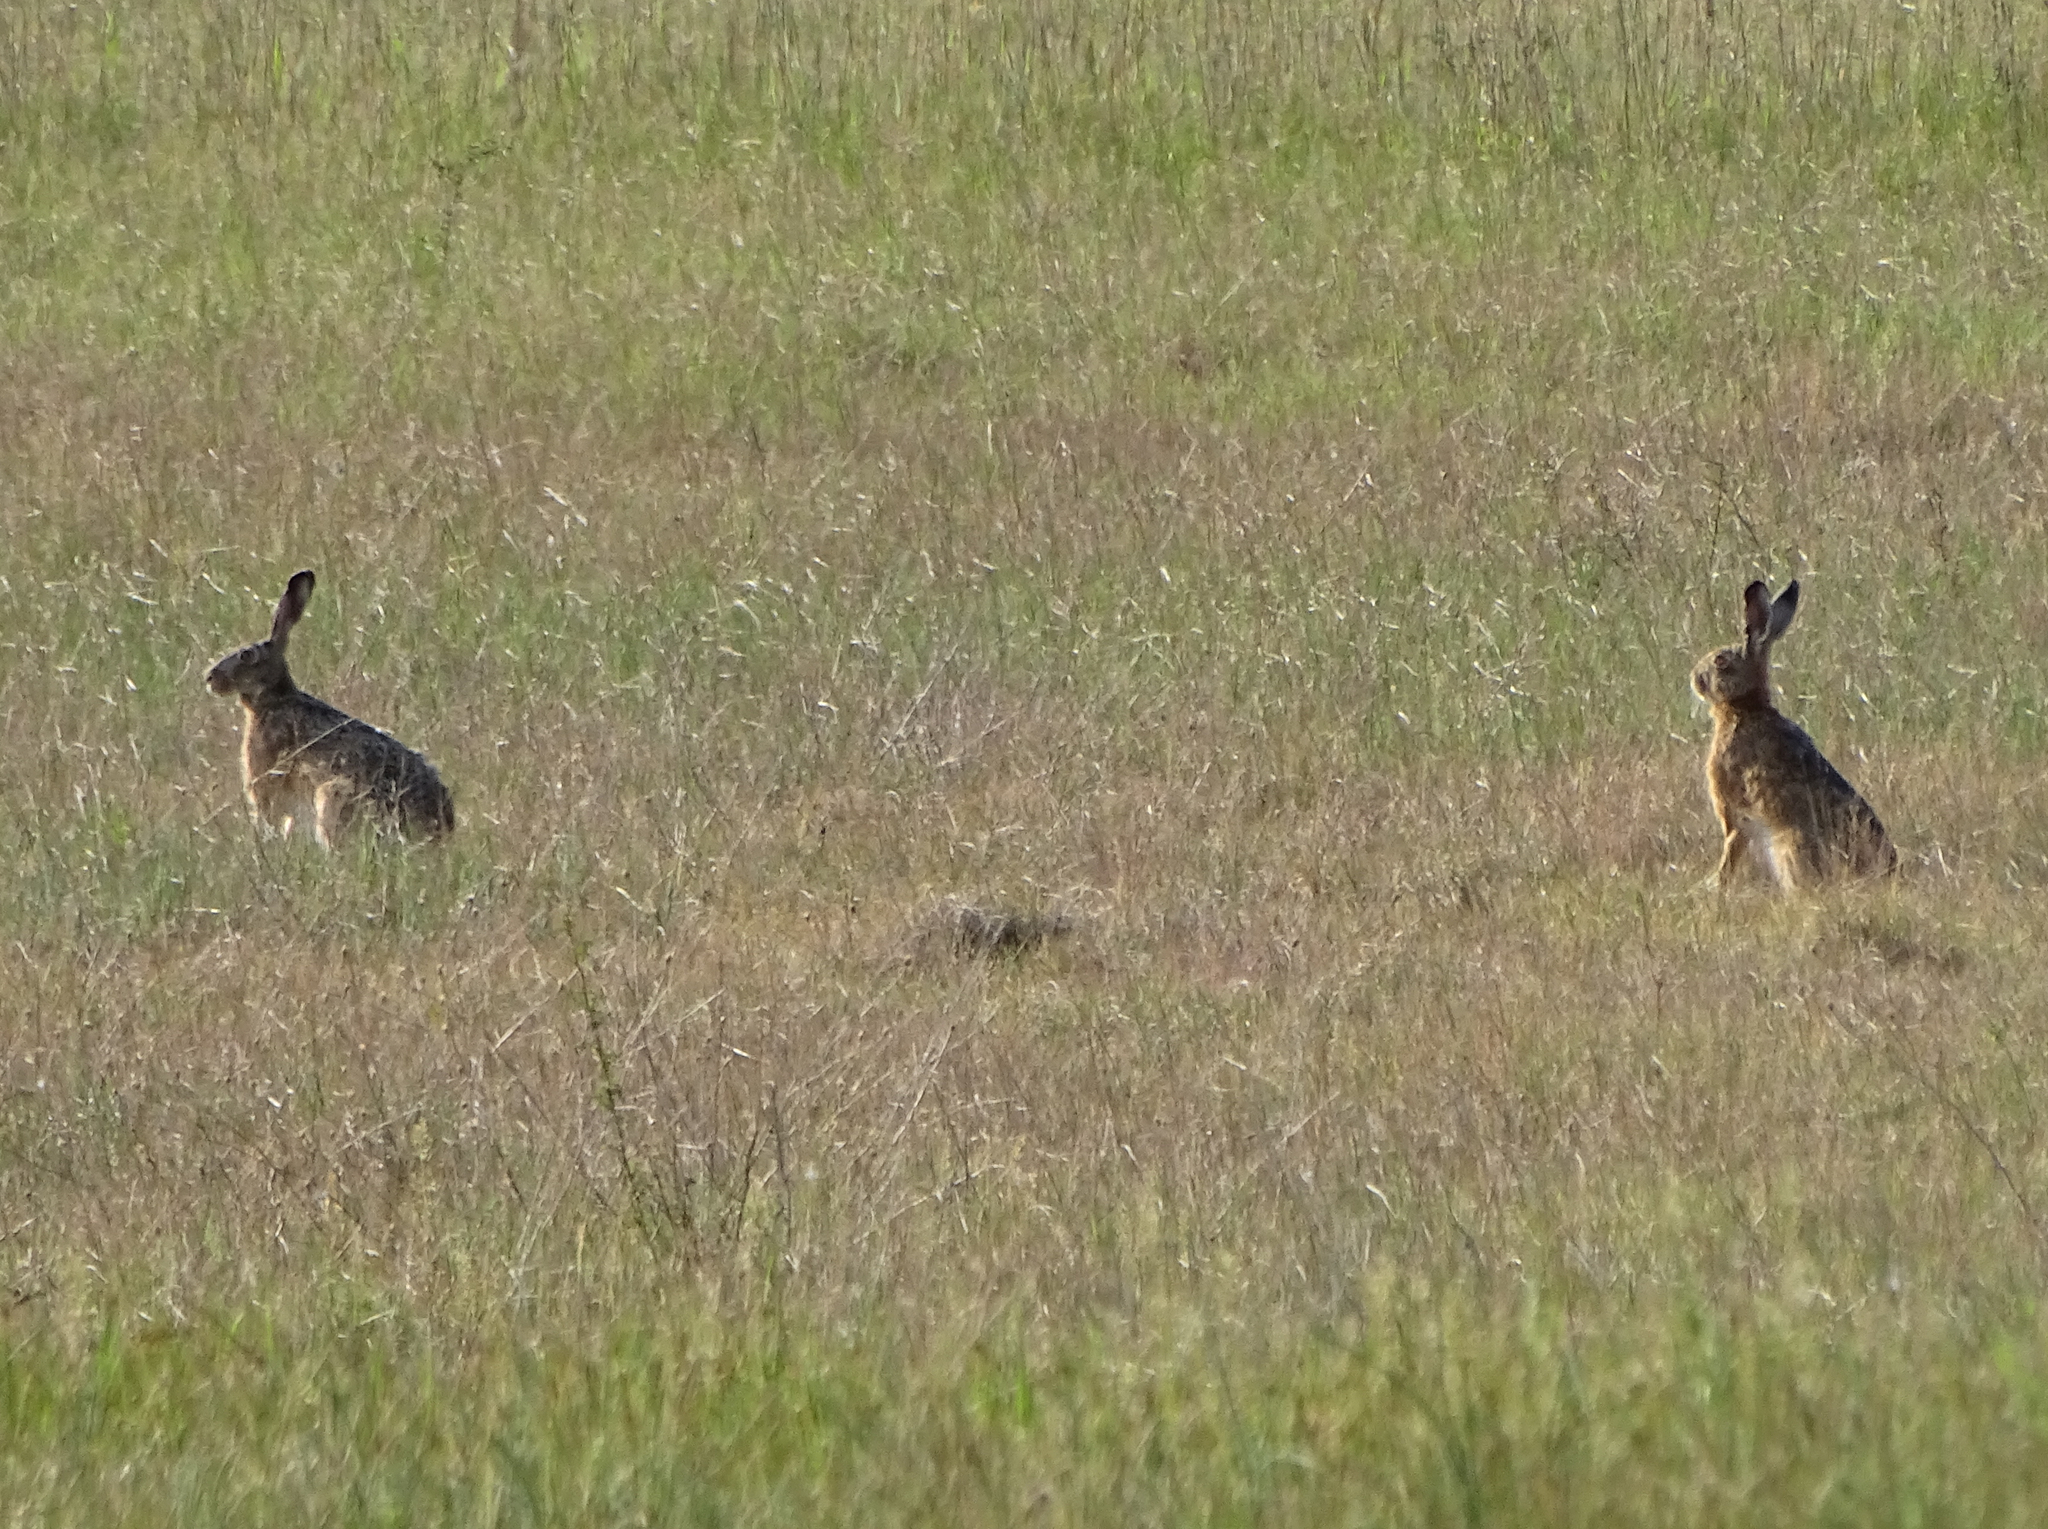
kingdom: Animalia
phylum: Chordata
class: Mammalia
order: Lagomorpha
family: Leporidae
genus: Lepus
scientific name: Lepus europaeus
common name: European hare
